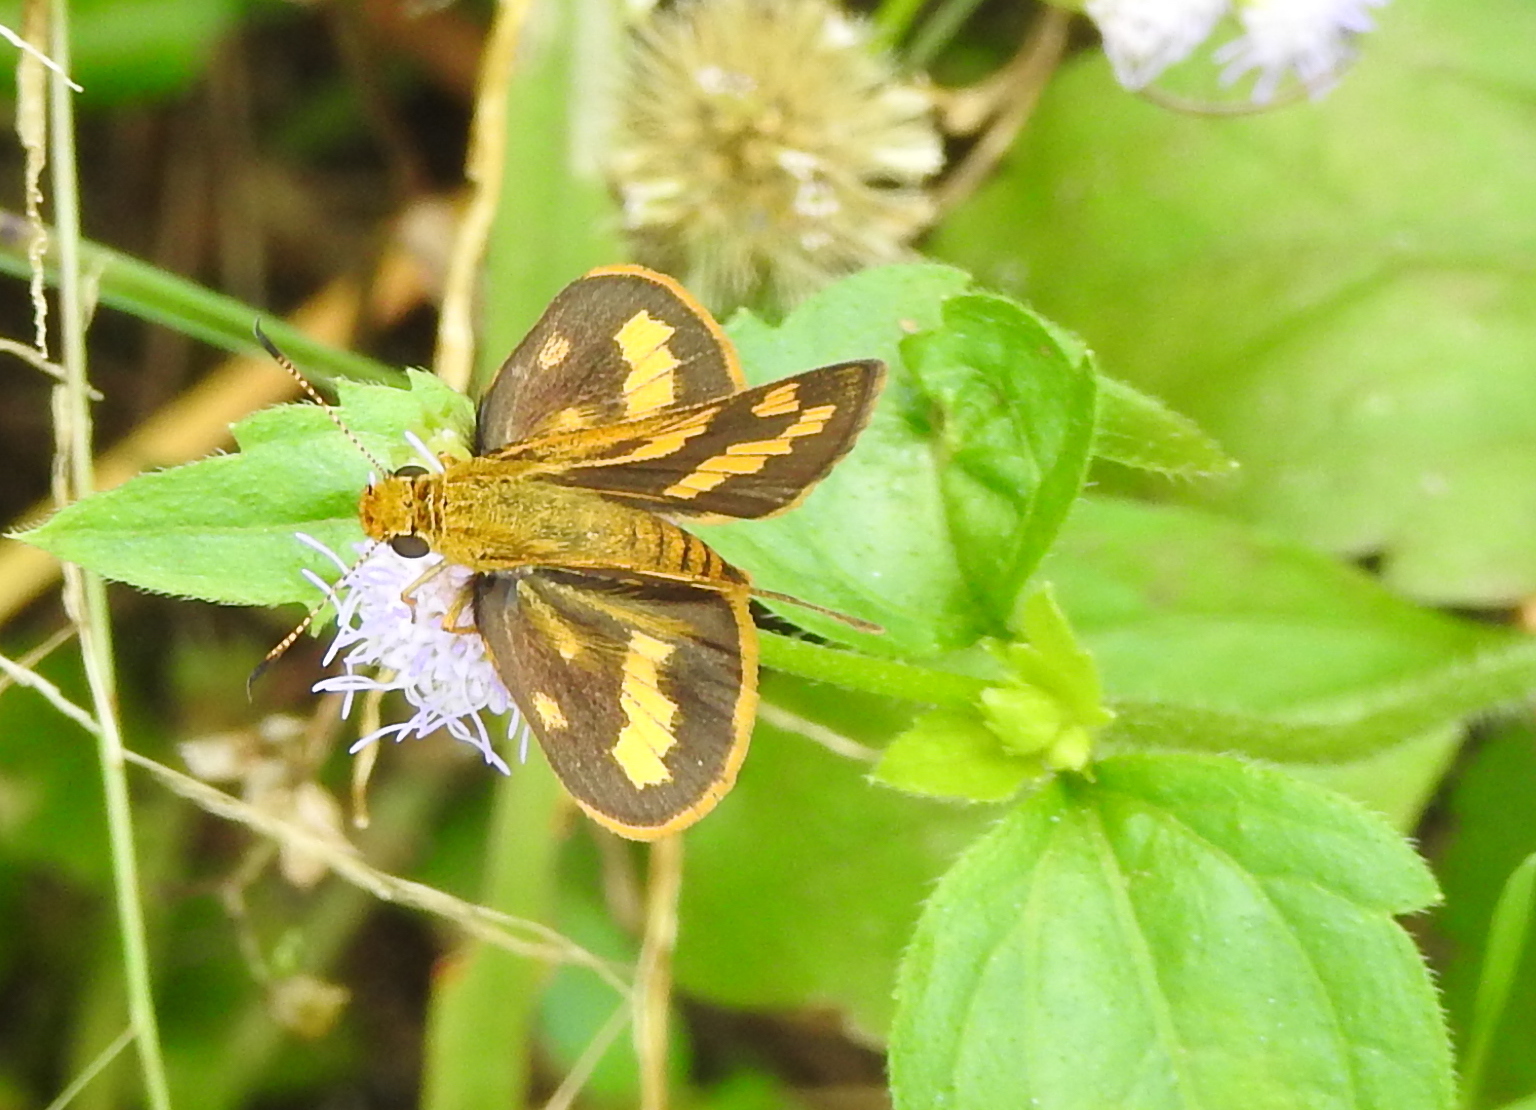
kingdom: Animalia
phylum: Arthropoda
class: Insecta
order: Lepidoptera
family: Hesperiidae
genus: Potanthus
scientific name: Potanthus omaha
